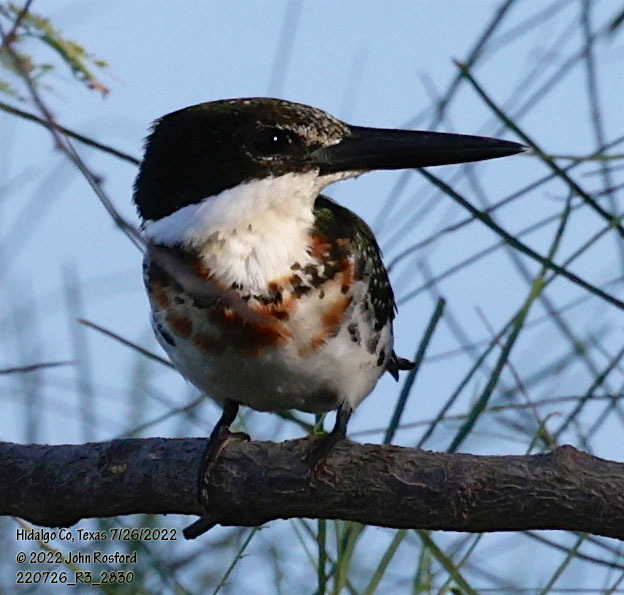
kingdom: Animalia
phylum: Chordata
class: Aves
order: Coraciiformes
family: Alcedinidae
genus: Chloroceryle
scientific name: Chloroceryle americana
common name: Green kingfisher
